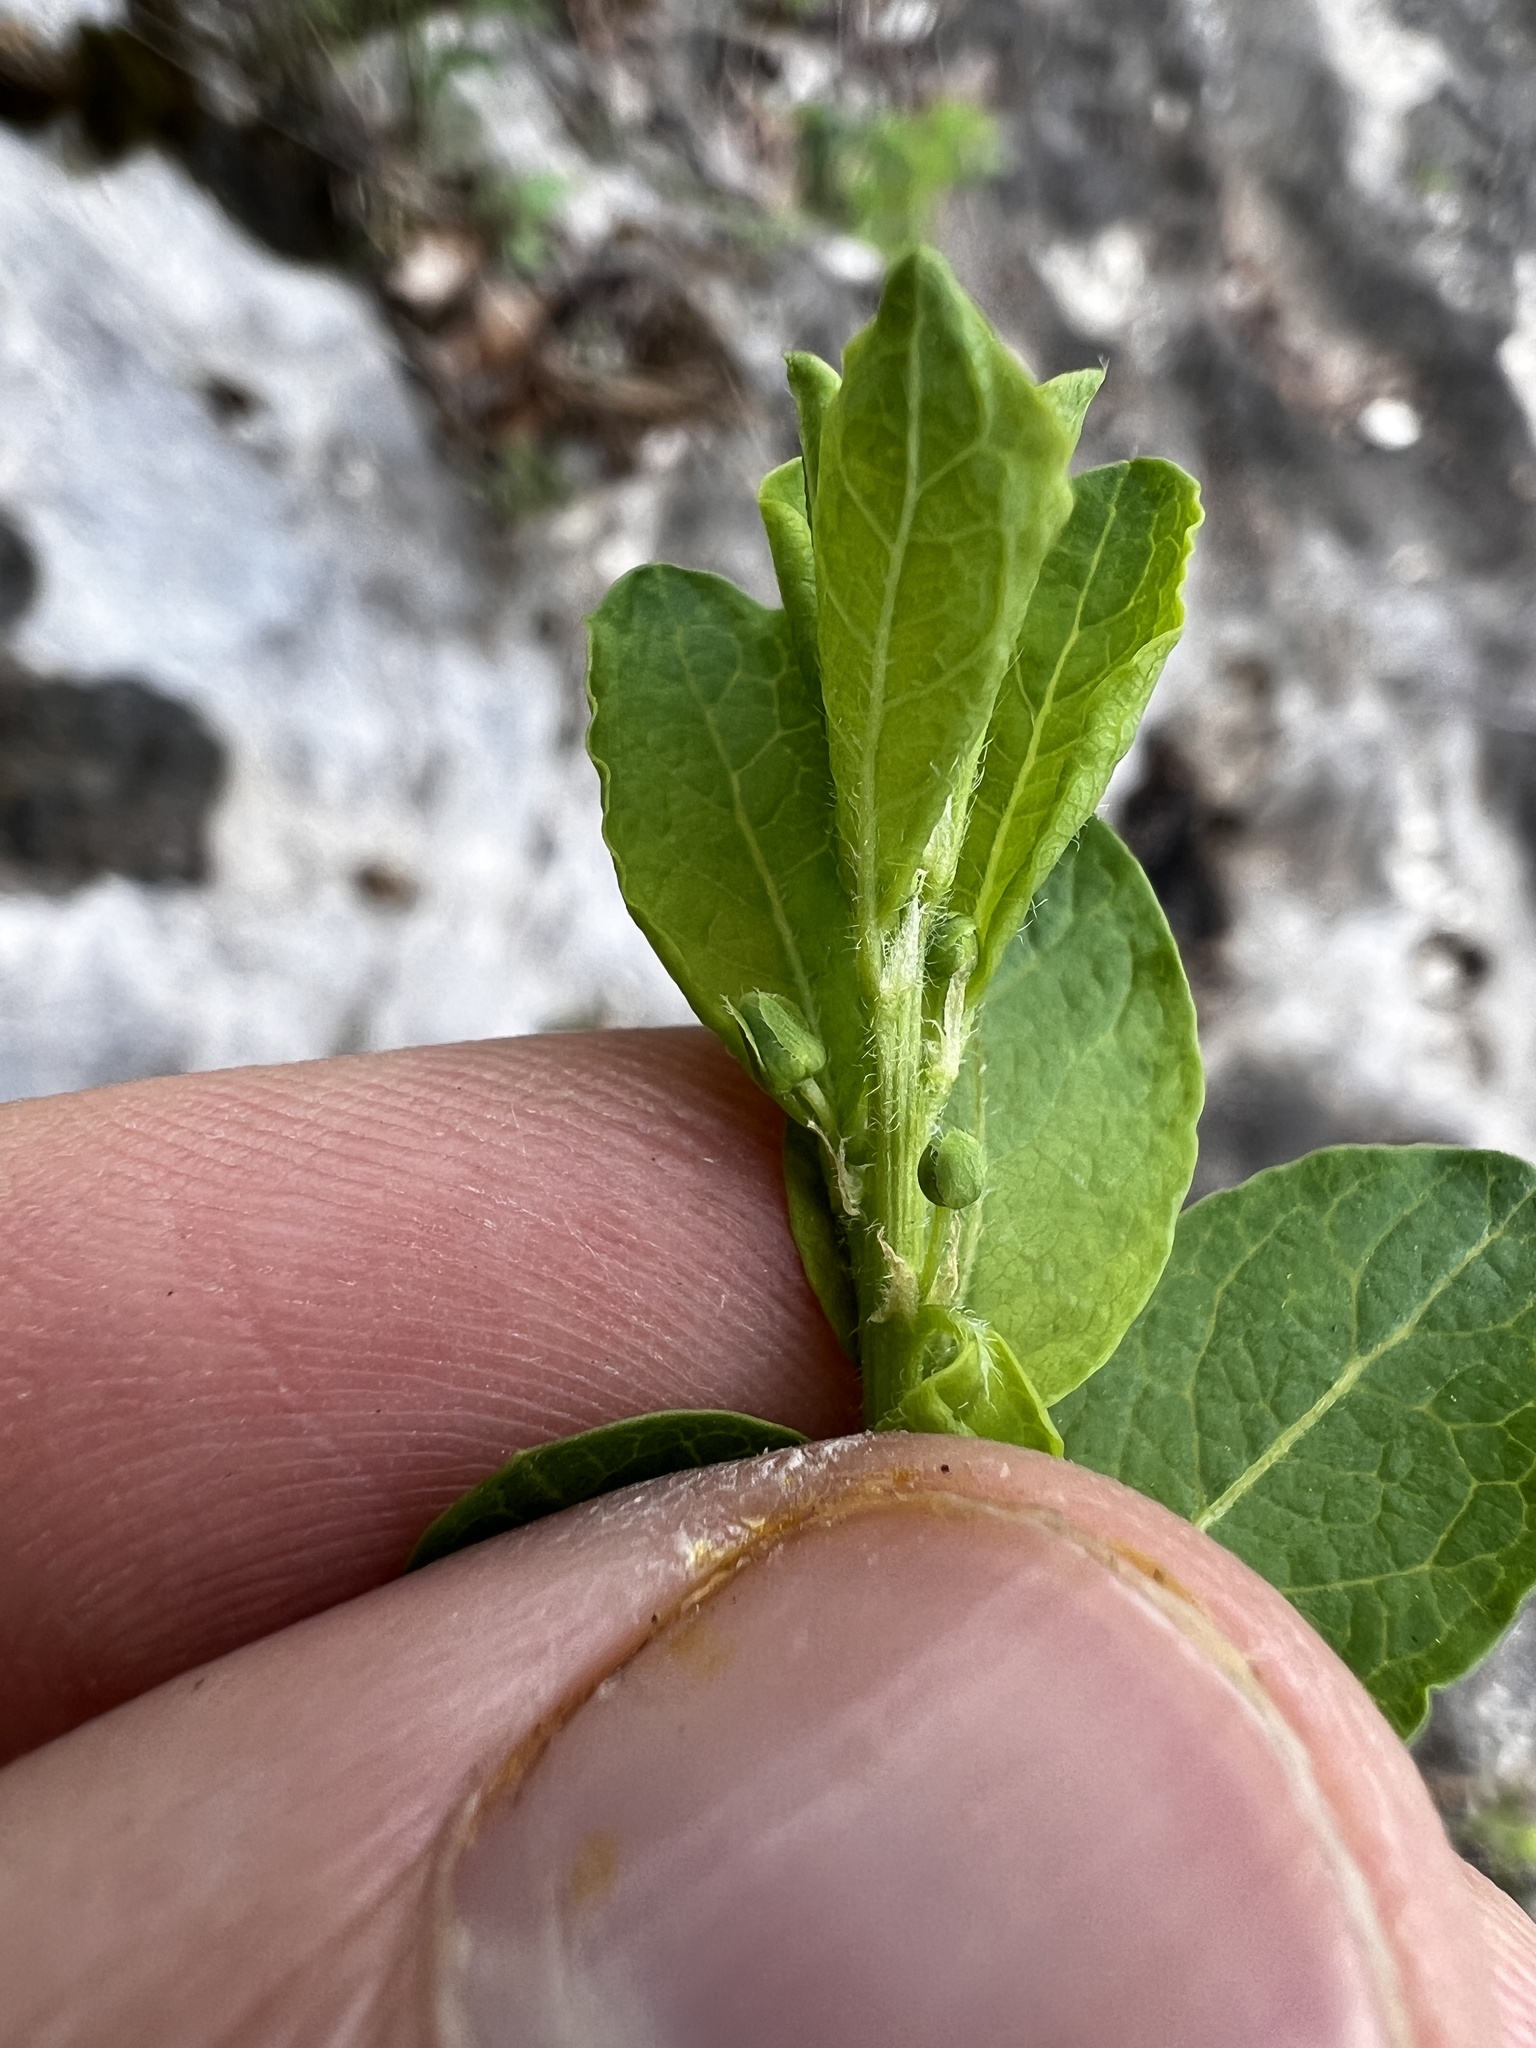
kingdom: Plantae
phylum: Tracheophyta
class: Magnoliopsida
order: Malpighiales
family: Phyllanthaceae
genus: Phyllanthopsis
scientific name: Phyllanthopsis phyllanthoides
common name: Missouri maidenbush
